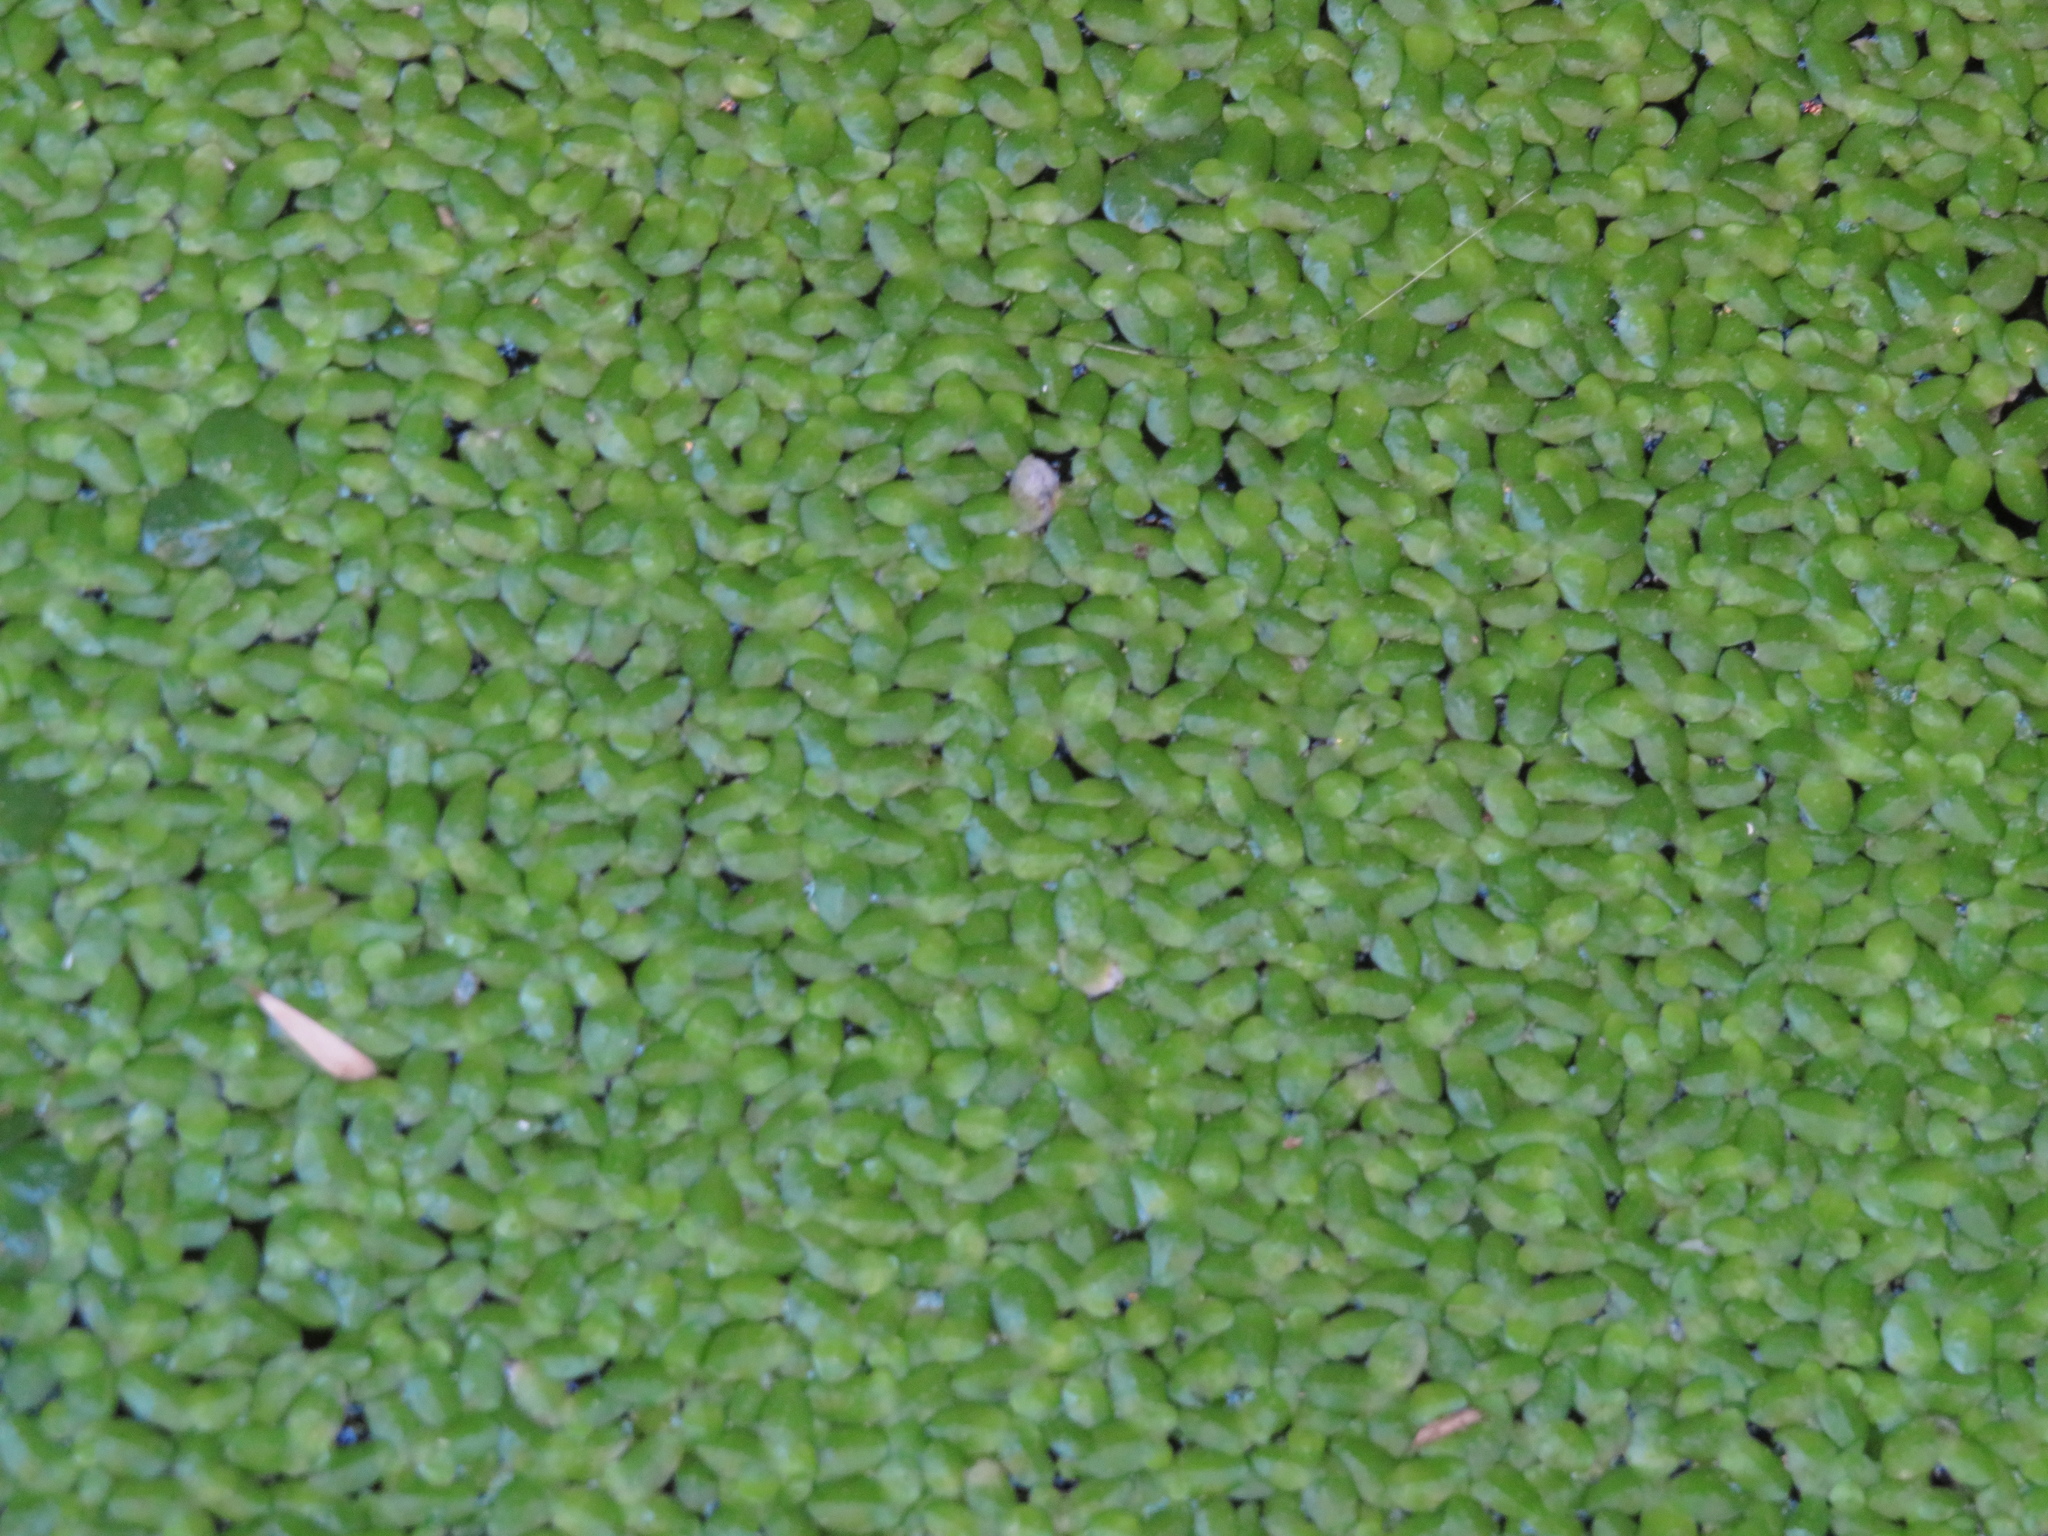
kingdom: Plantae
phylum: Tracheophyta
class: Liliopsida
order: Alismatales
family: Araceae
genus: Lemna
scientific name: Lemna minor
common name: Common duckweed
